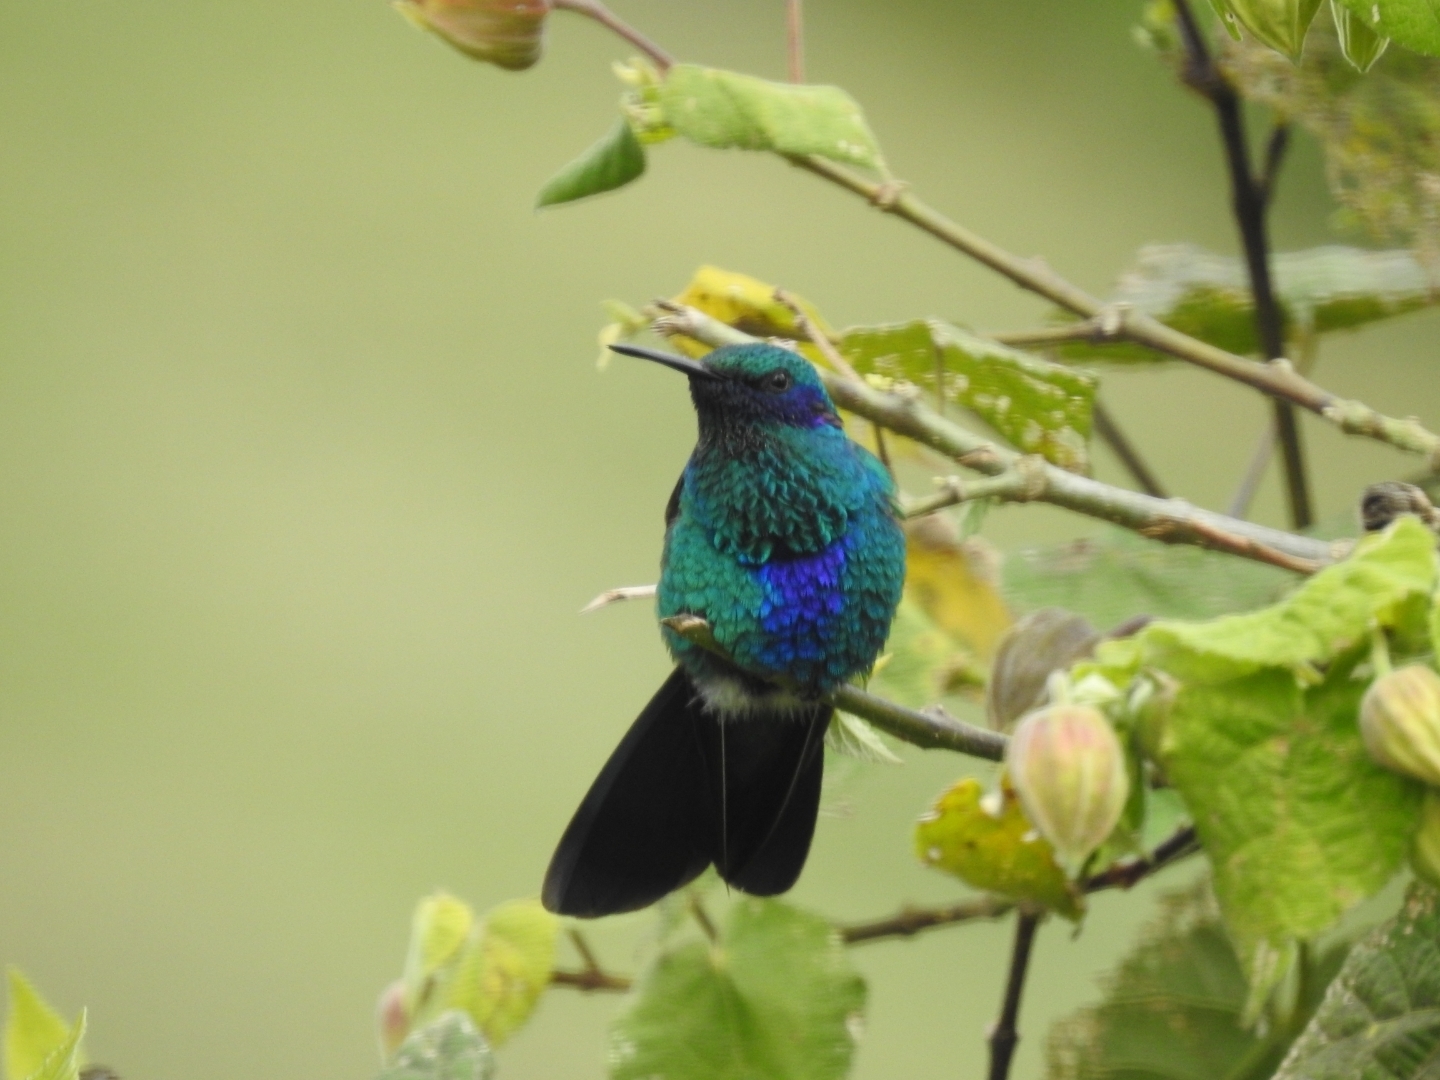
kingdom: Animalia
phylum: Chordata
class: Aves
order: Apodiformes
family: Trochilidae
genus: Colibri
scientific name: Colibri coruscans
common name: Sparkling violetear
